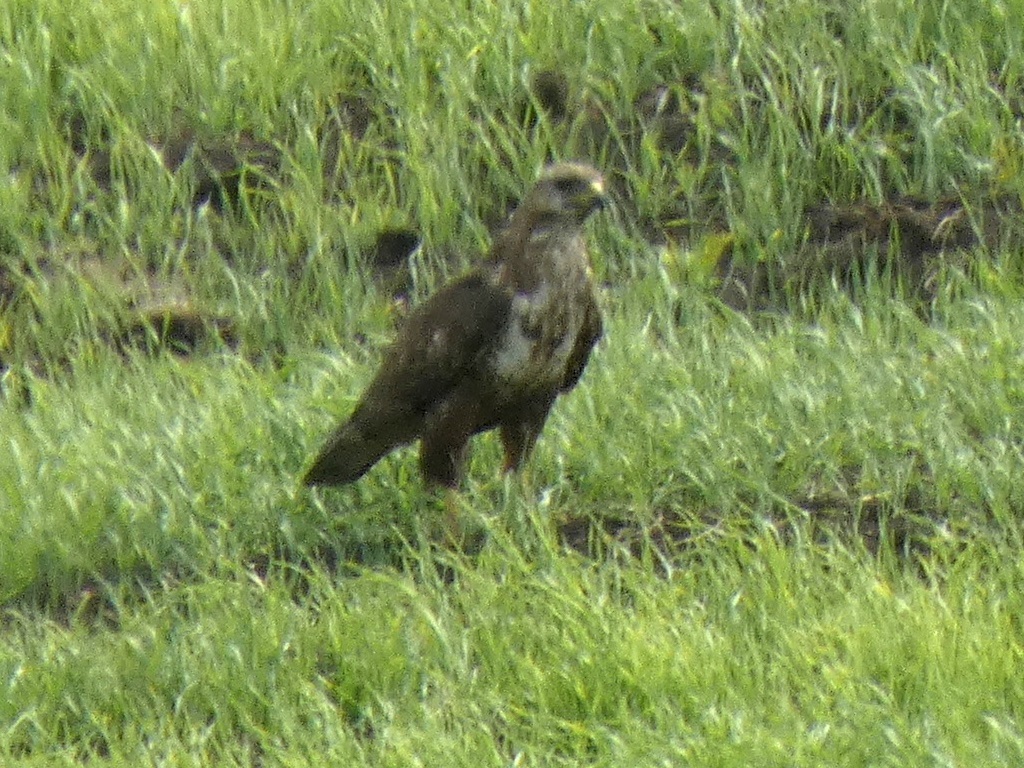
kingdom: Animalia
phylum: Chordata
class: Aves
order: Accipitriformes
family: Accipitridae
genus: Buteo
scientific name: Buteo buteo
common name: Common buzzard
